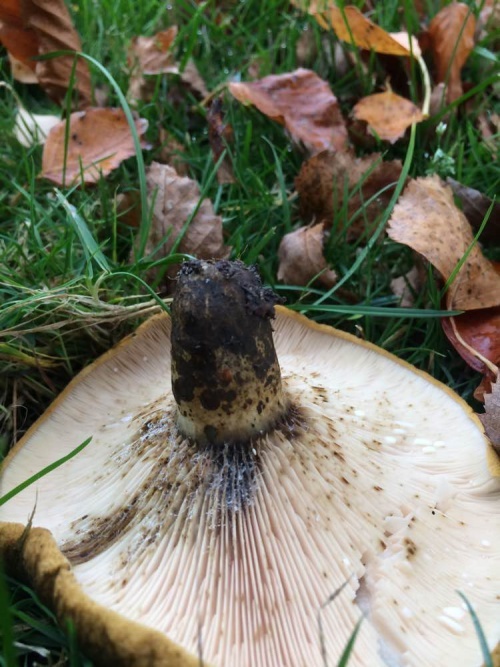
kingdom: Fungi
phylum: Basidiomycota
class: Agaricomycetes
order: Russulales
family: Russulaceae
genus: Lactarius
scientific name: Lactarius turpis
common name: Ugly milk-cap
